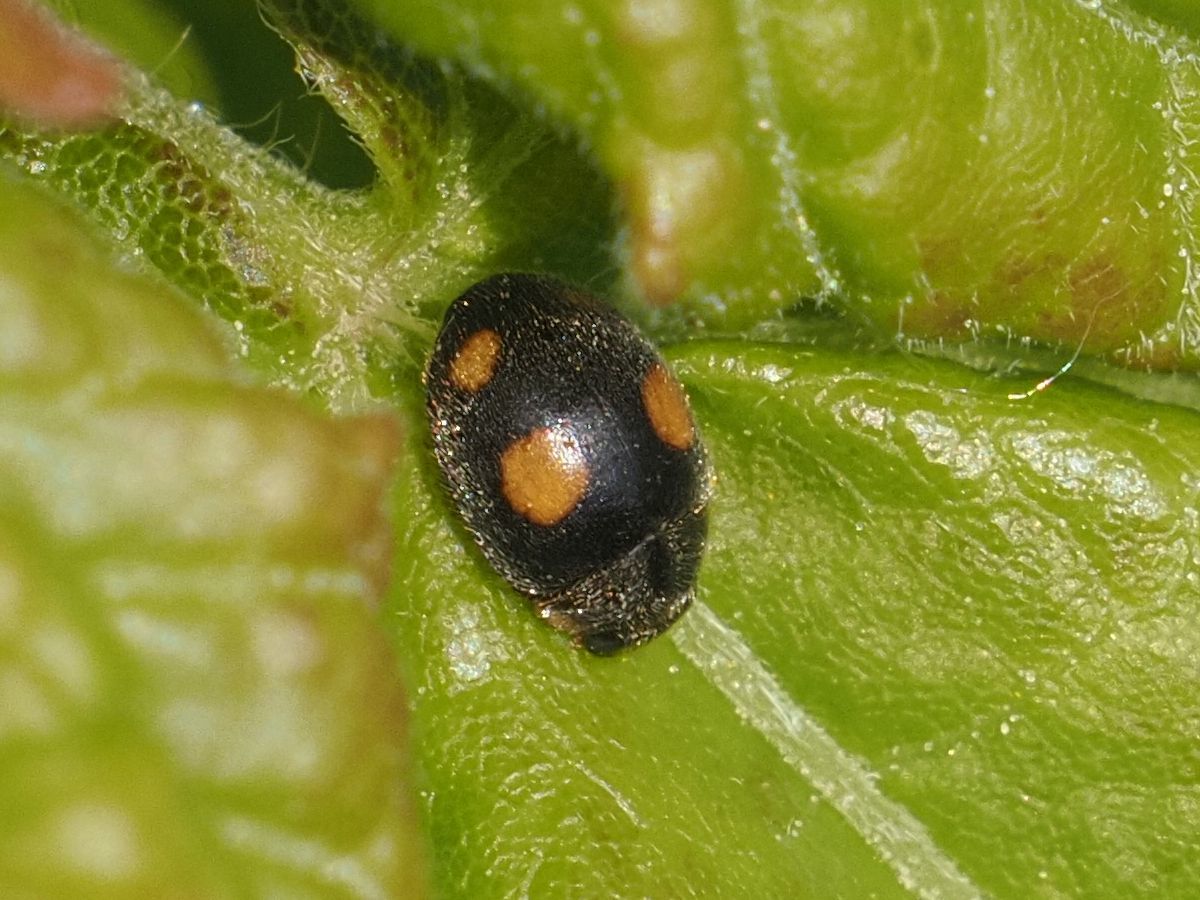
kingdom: Animalia
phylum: Arthropoda
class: Insecta
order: Coleoptera
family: Coccinellidae
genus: Platynaspis
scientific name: Platynaspis luteorubra
